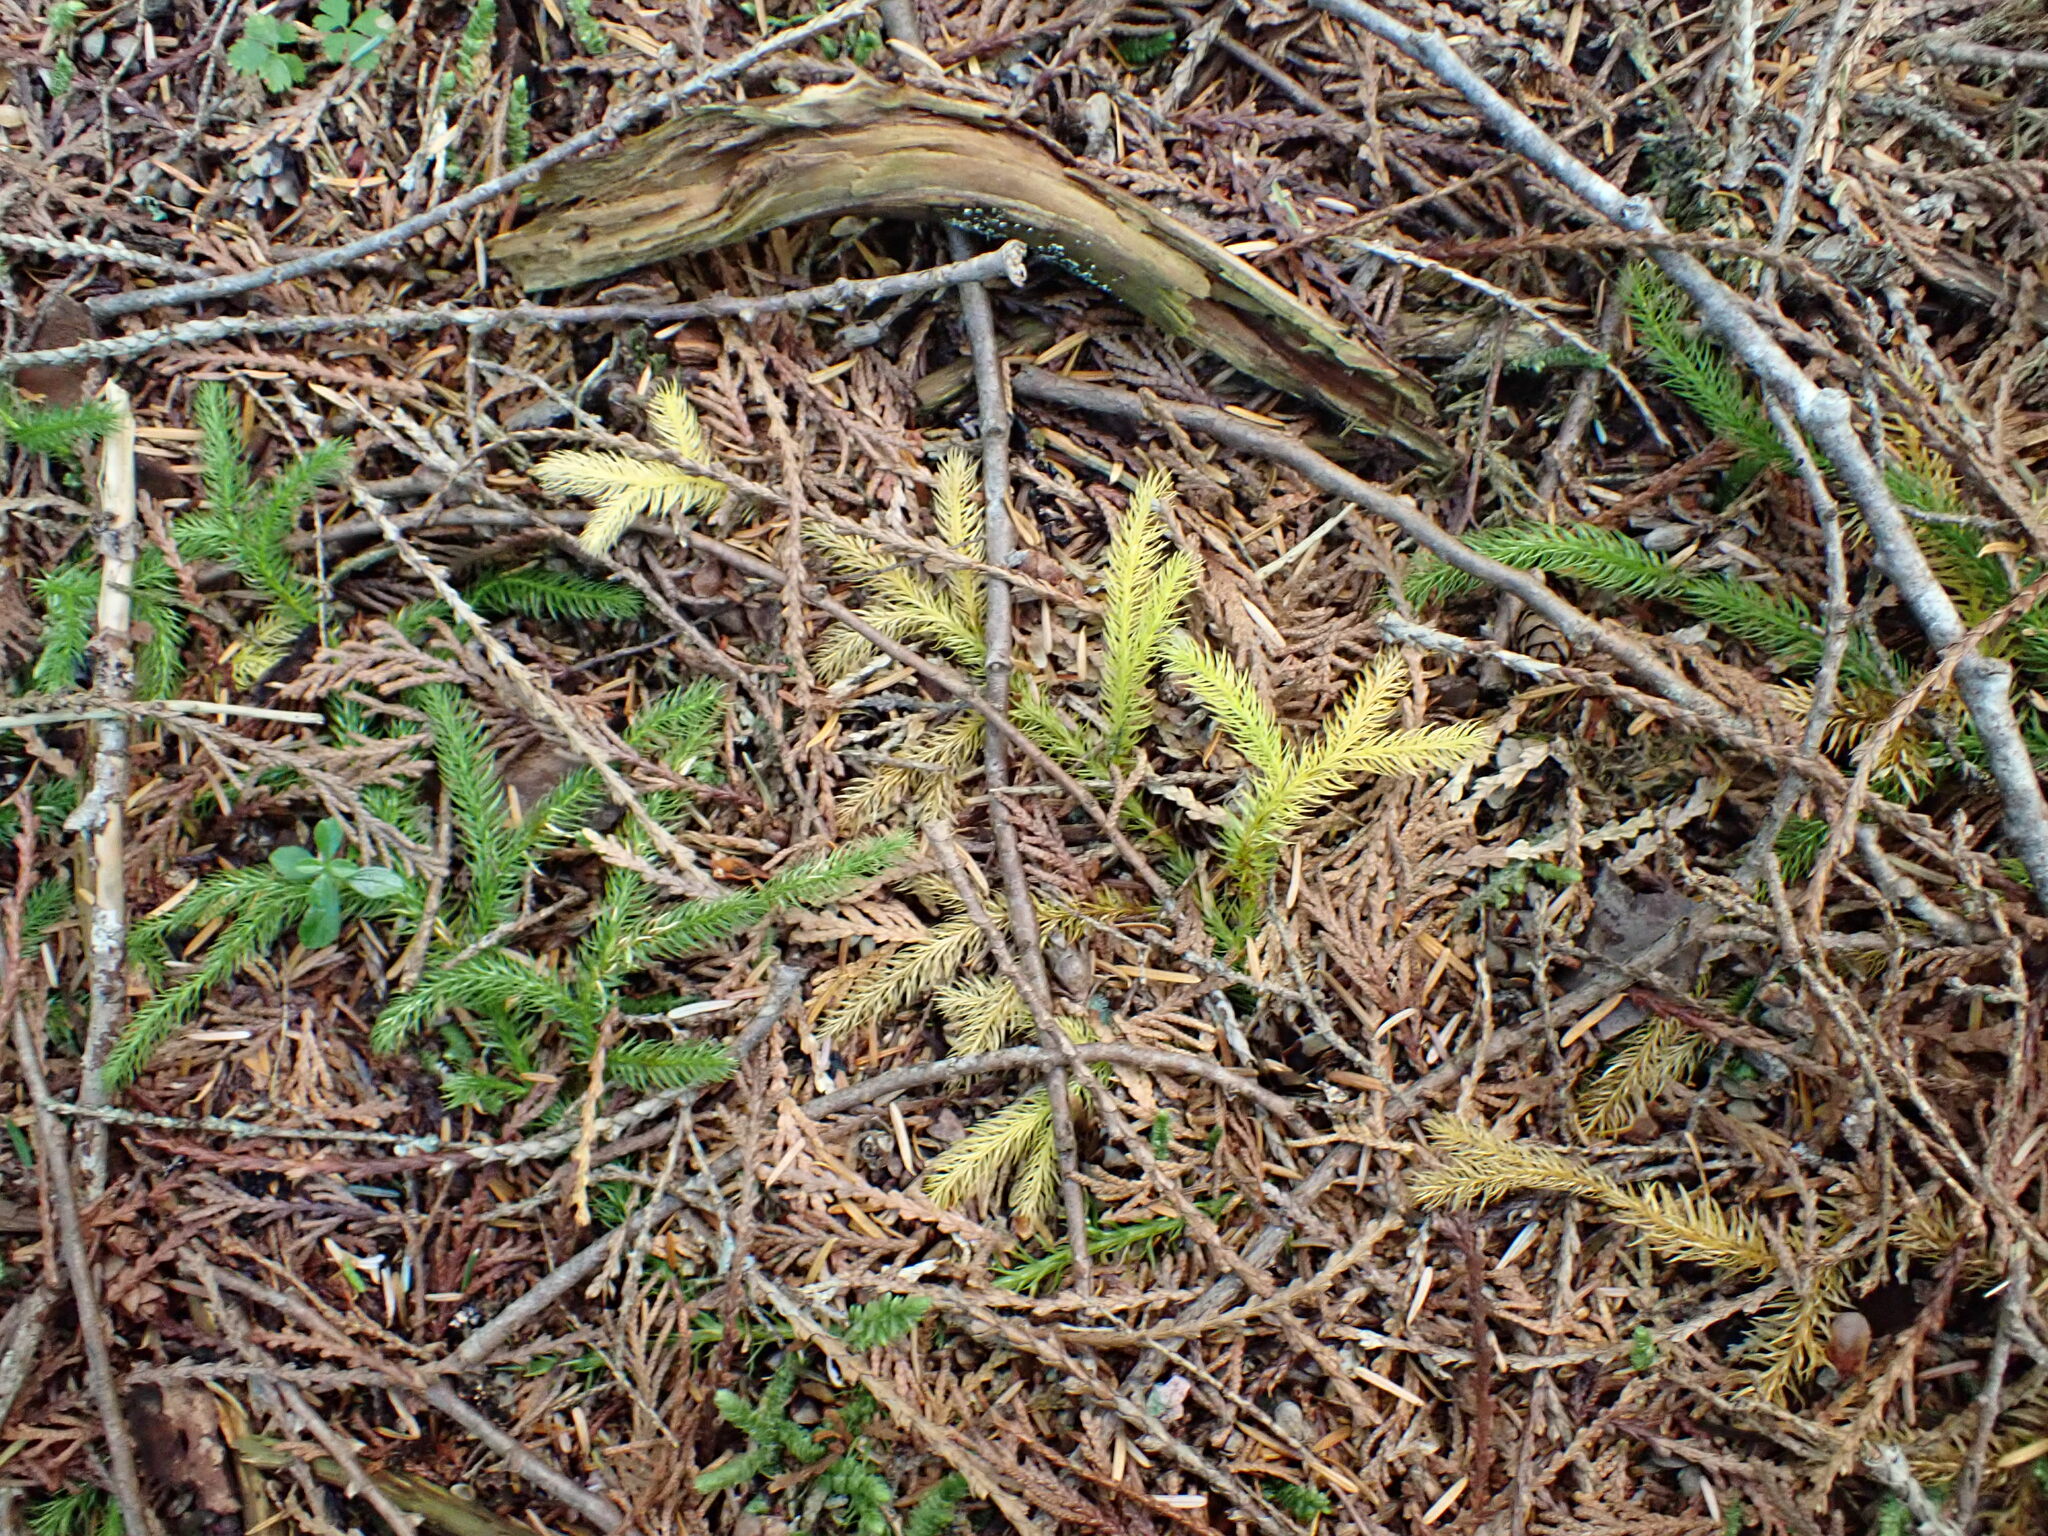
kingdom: Plantae
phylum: Tracheophyta
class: Lycopodiopsida
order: Lycopodiales
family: Lycopodiaceae
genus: Lycopodium
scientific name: Lycopodium clavatum
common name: Stag's-horn clubmoss
